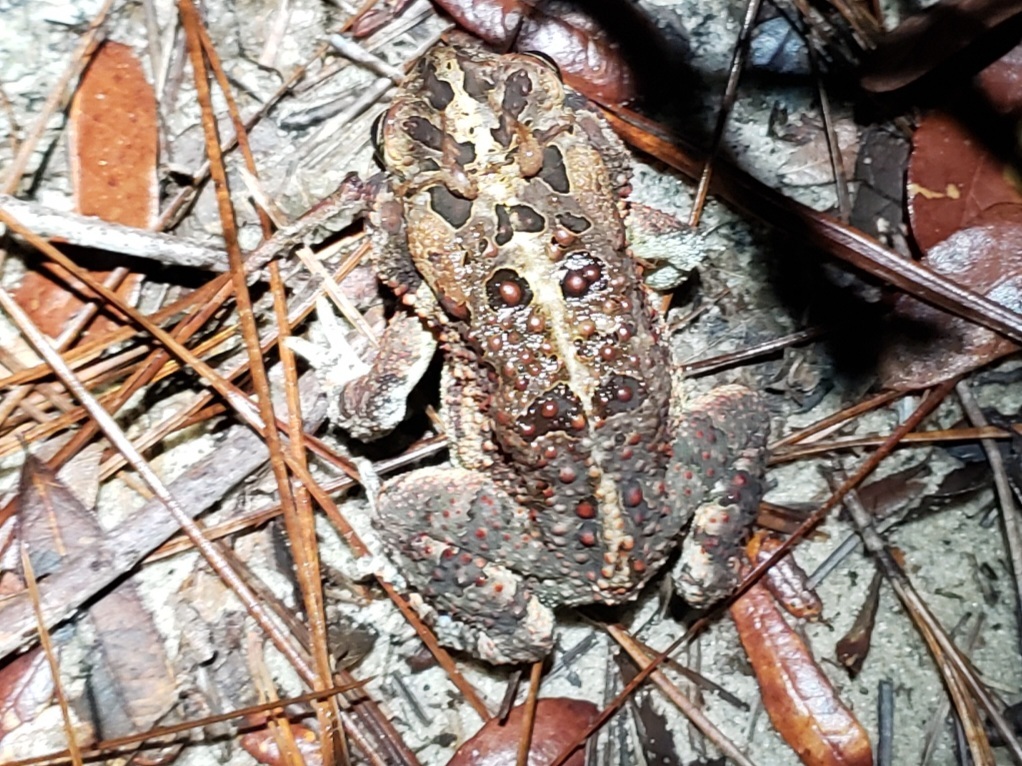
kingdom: Animalia
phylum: Chordata
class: Amphibia
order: Anura
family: Bufonidae
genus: Anaxyrus
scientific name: Anaxyrus terrestris
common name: Southern toad
